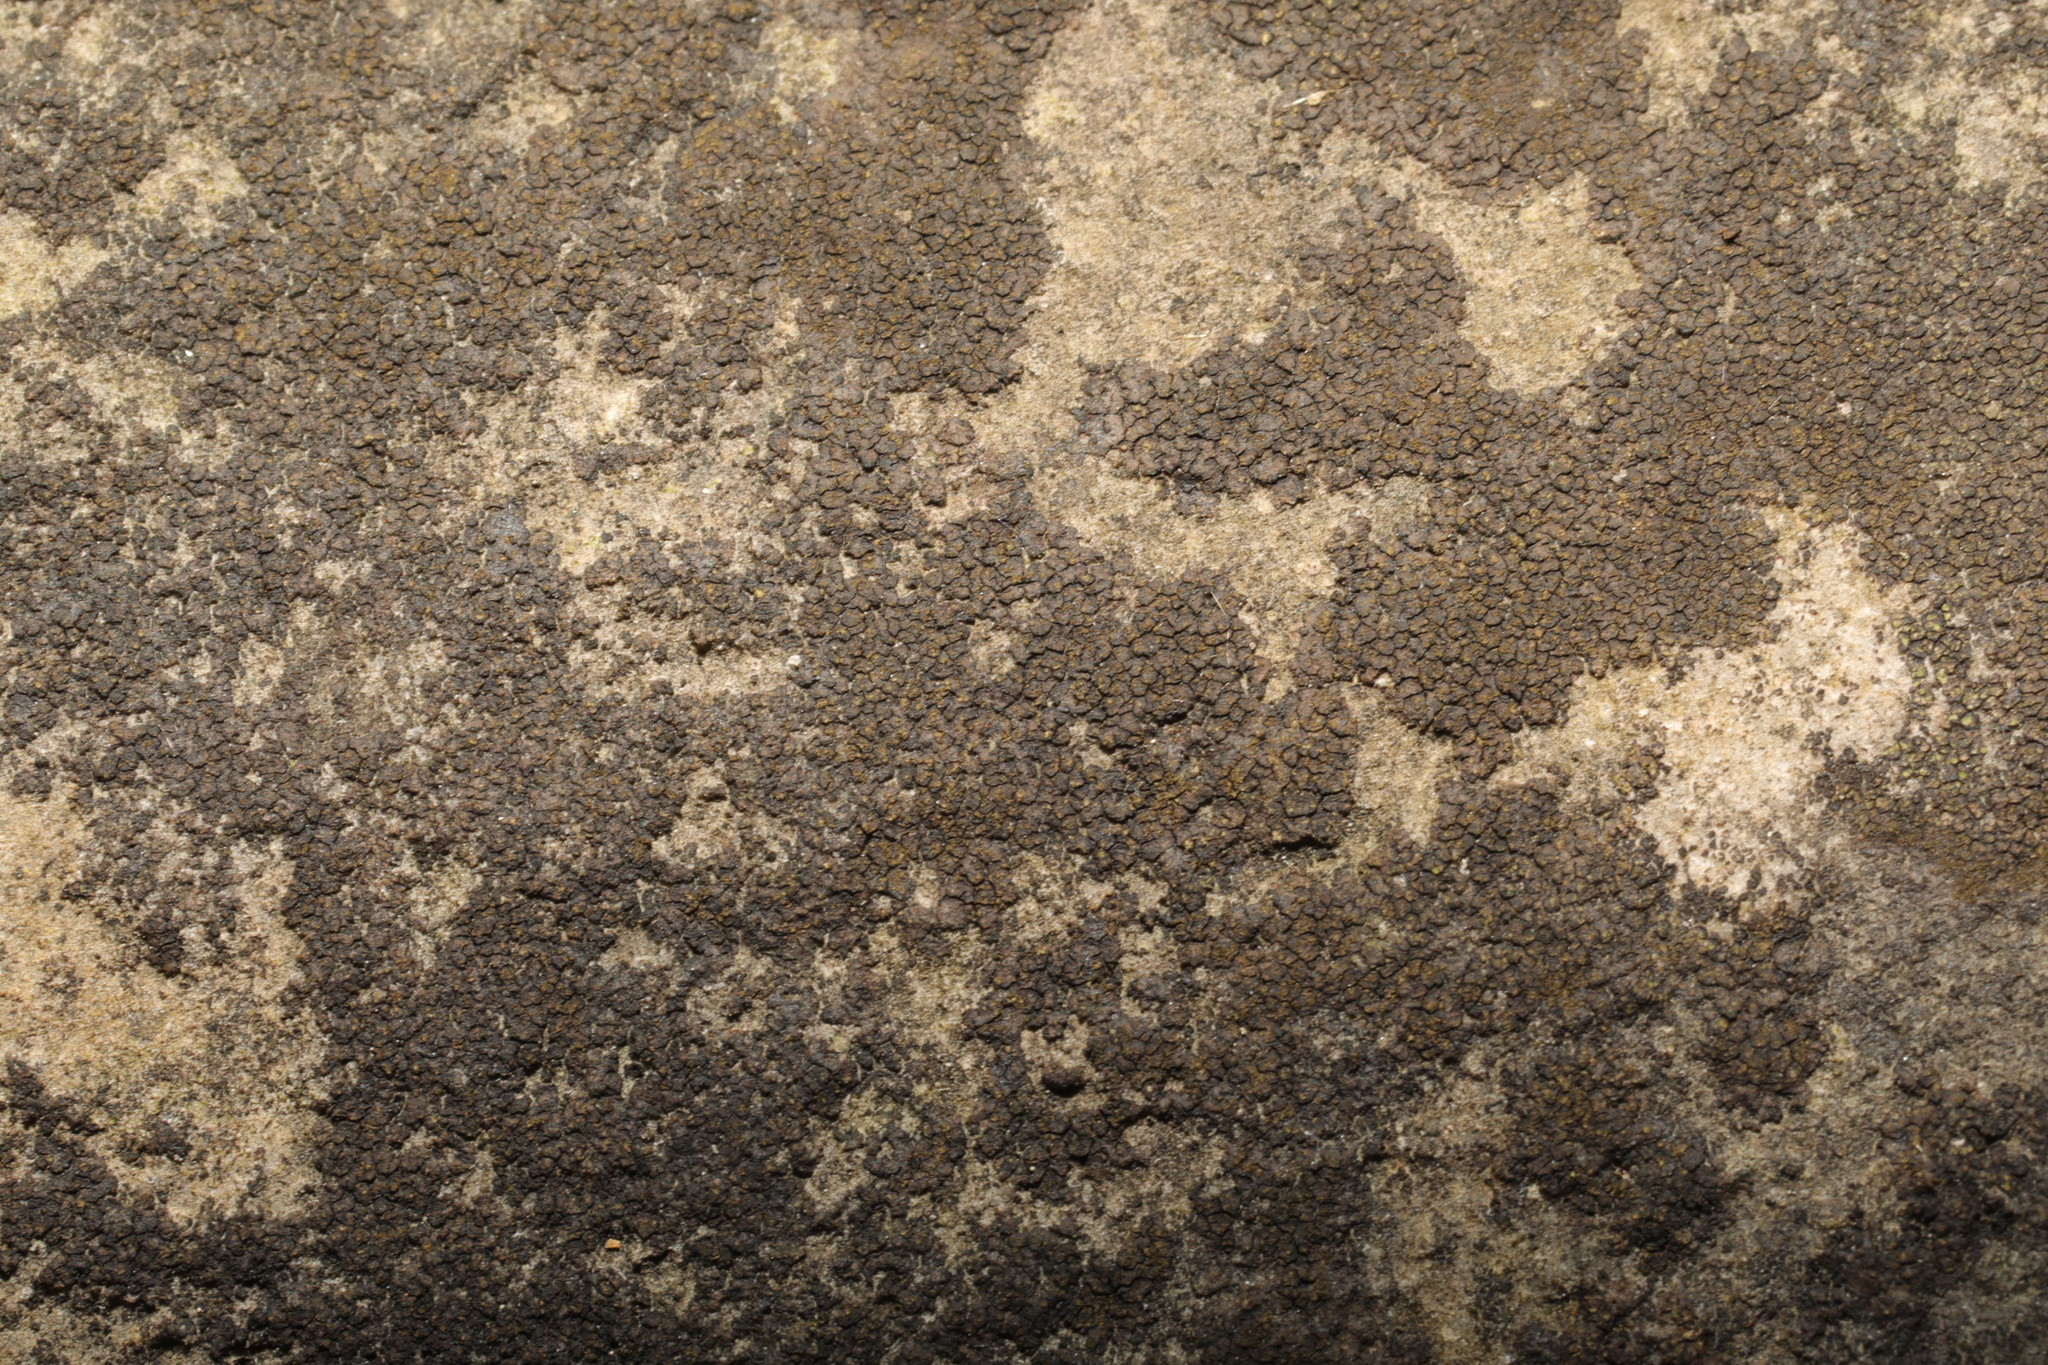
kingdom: Fungi
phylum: Ascomycota
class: Eurotiomycetes
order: Verrucariales
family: Verrucariaceae
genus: Verrucaria
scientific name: Verrucaria nigrescens
